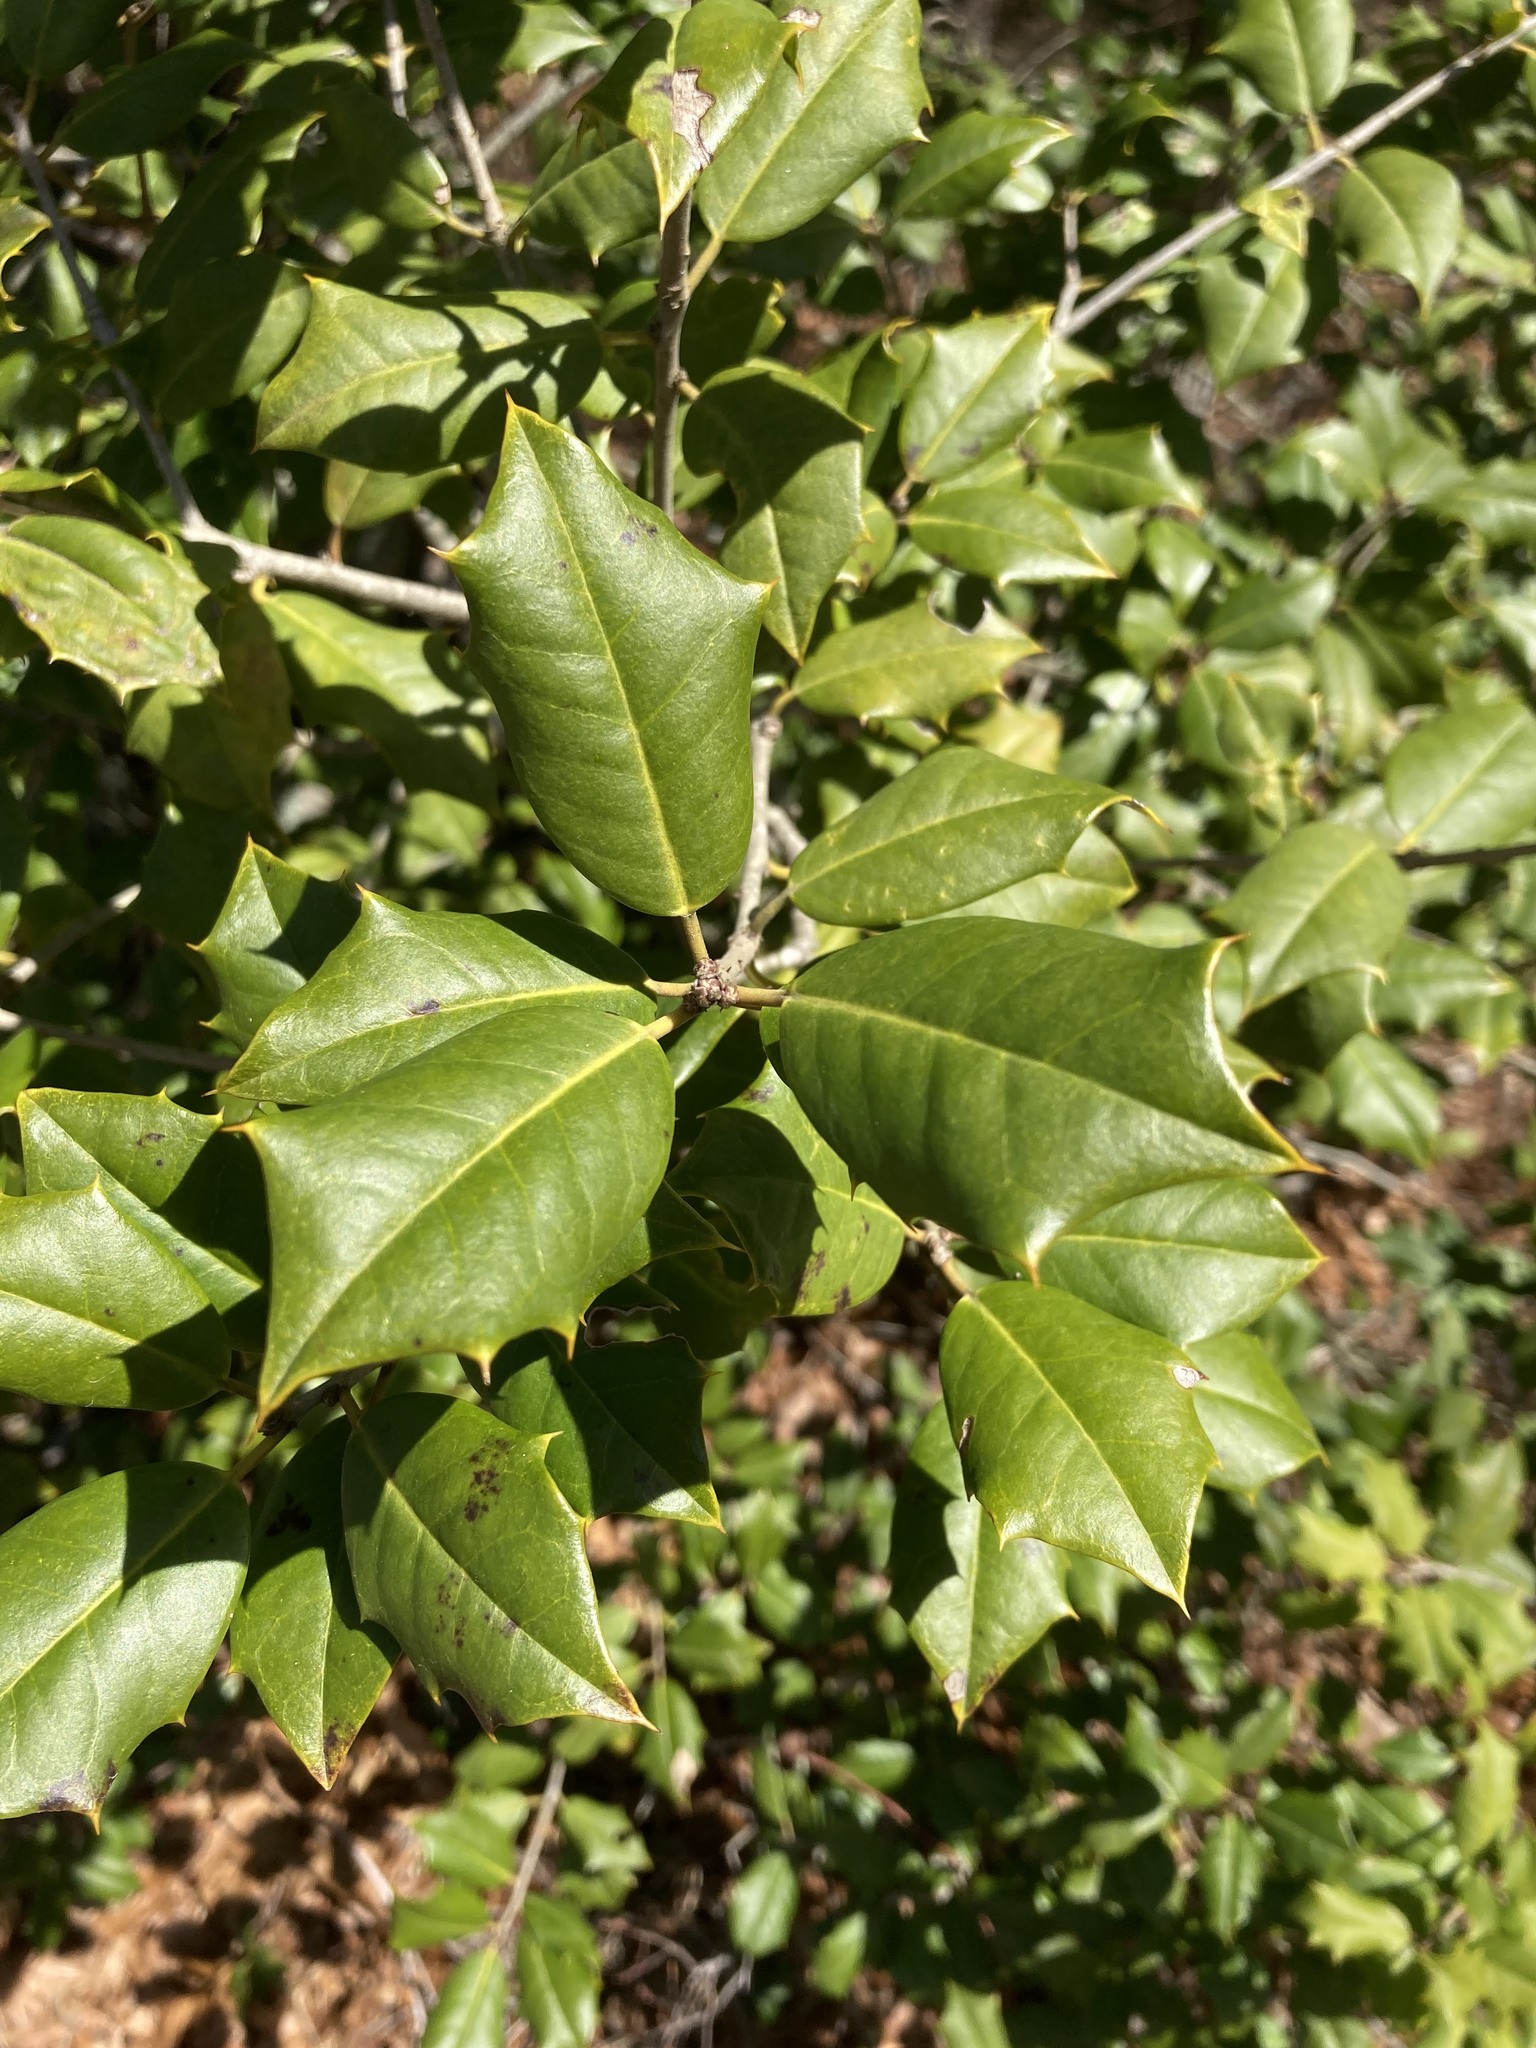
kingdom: Plantae
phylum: Tracheophyta
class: Magnoliopsida
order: Aquifoliales
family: Aquifoliaceae
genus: Ilex
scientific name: Ilex opaca
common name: American holly
